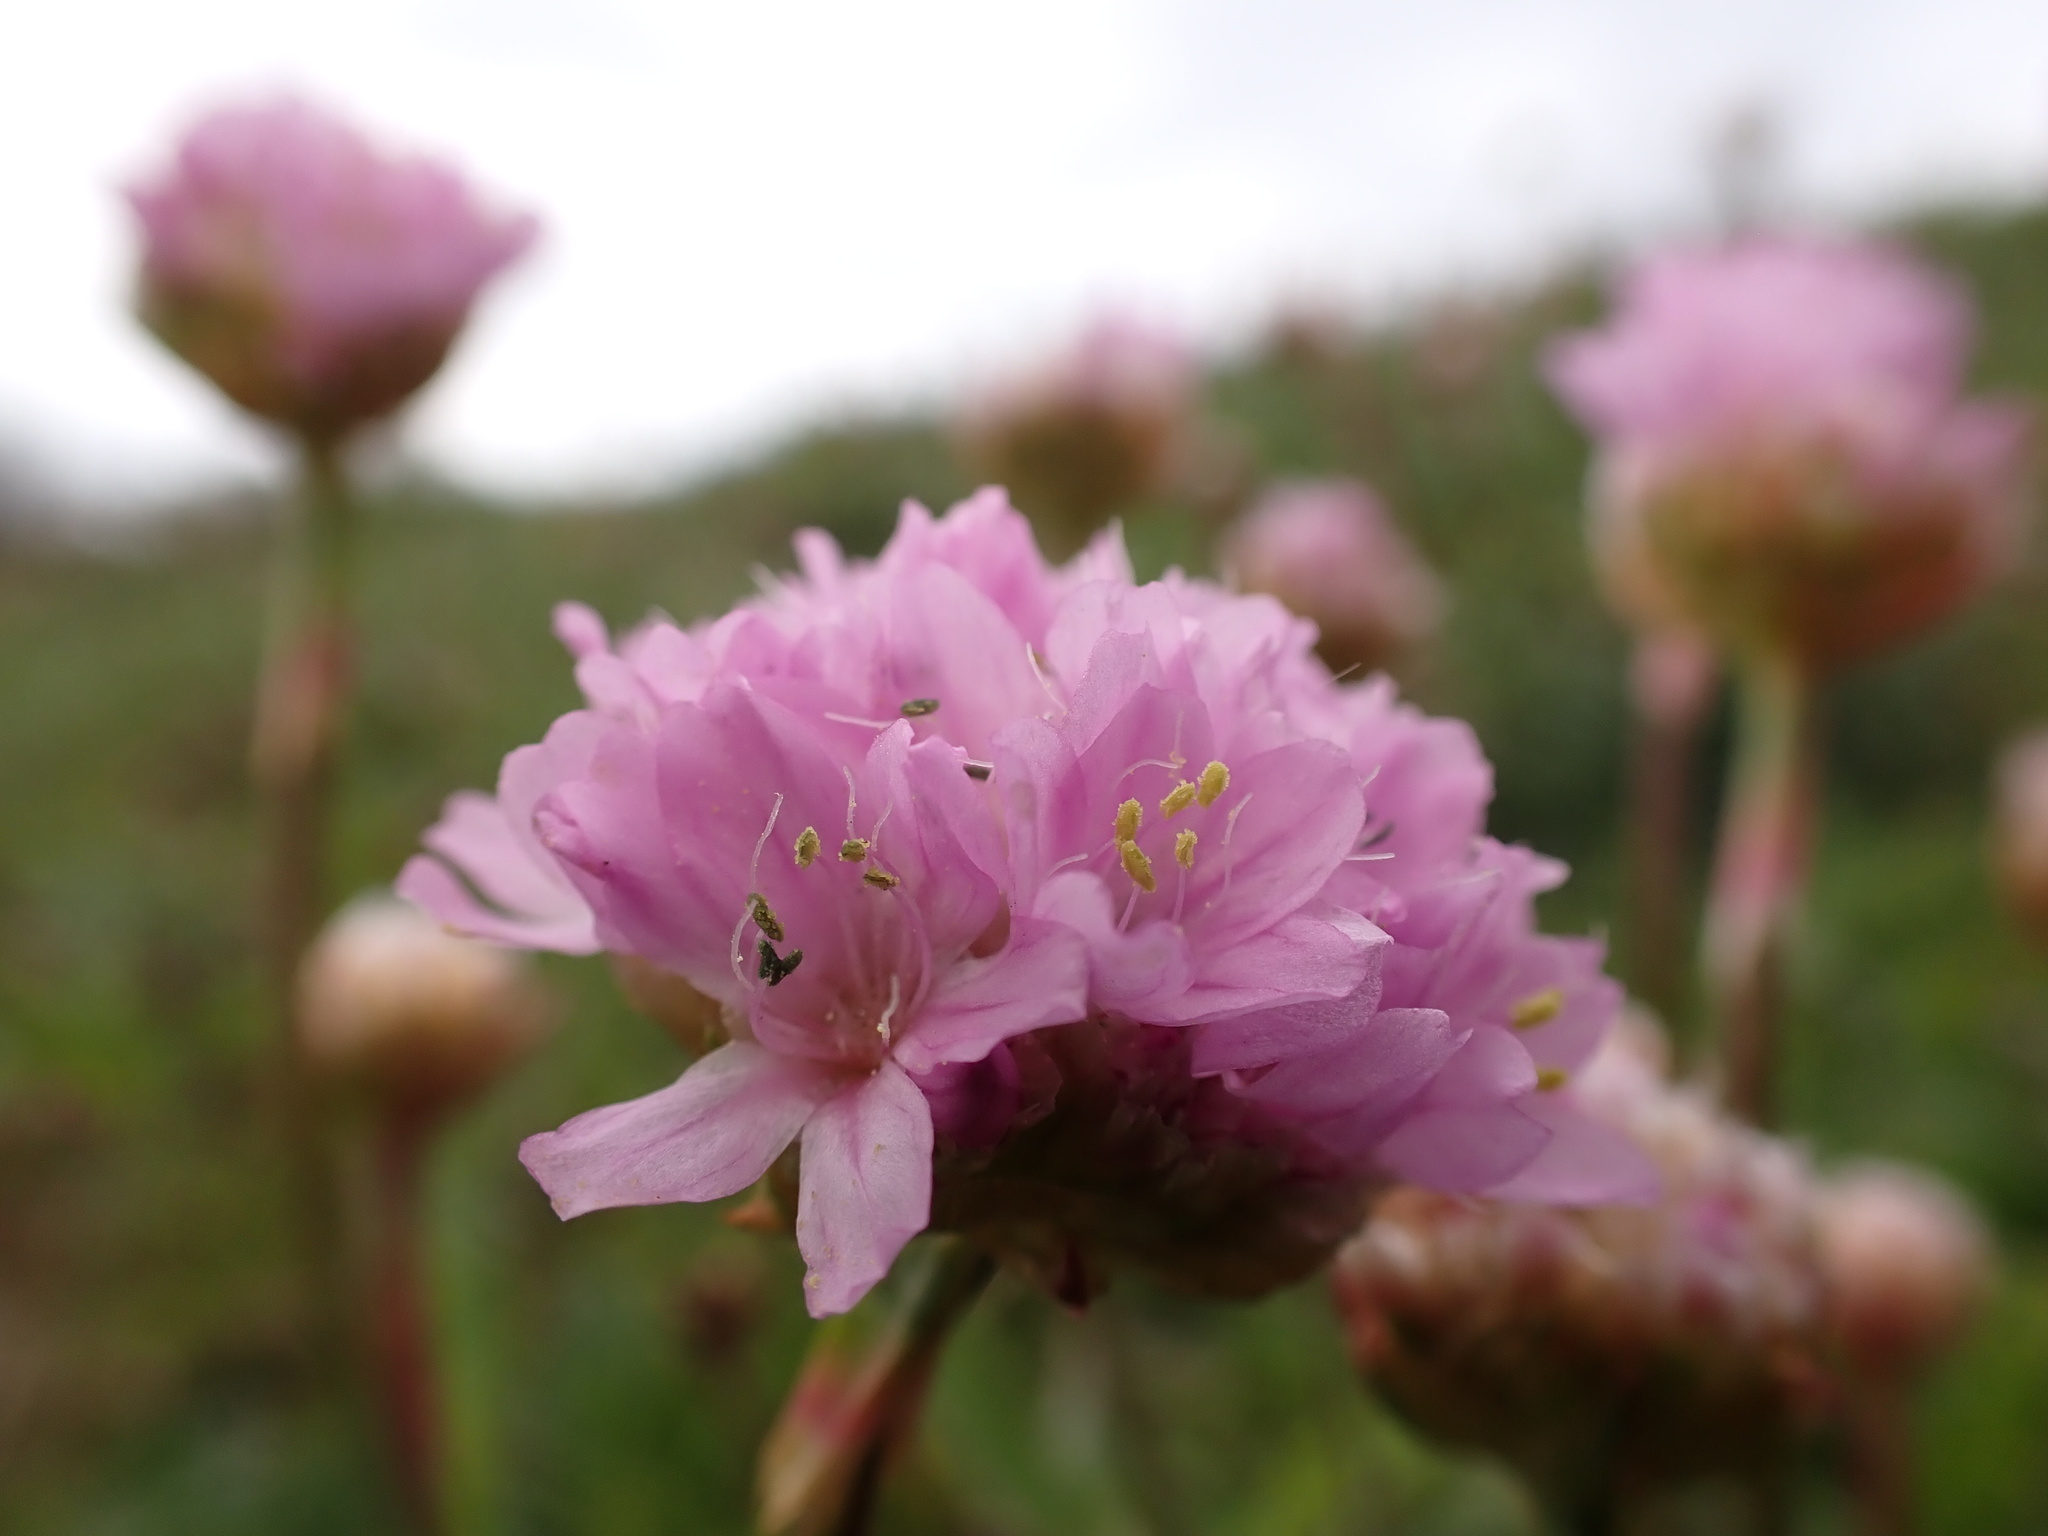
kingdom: Plantae
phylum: Tracheophyta
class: Magnoliopsida
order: Caryophyllales
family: Plumbaginaceae
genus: Armeria
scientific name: Armeria maritima
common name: Thrift
